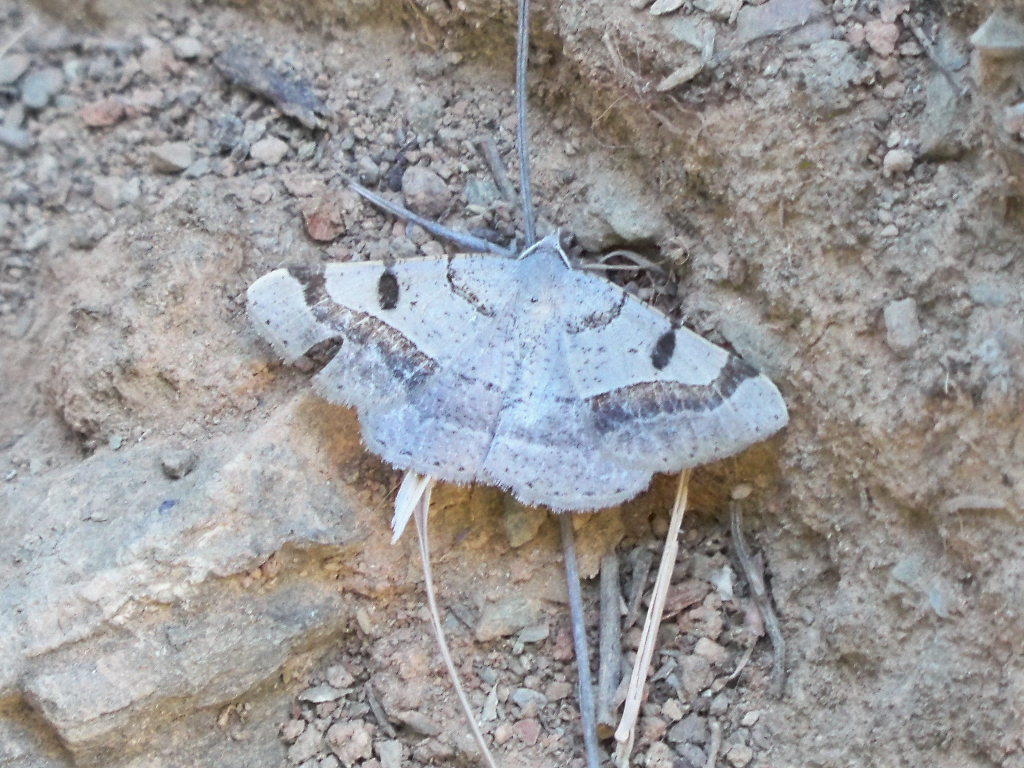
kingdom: Animalia
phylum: Arthropoda
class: Insecta
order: Lepidoptera
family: Geometridae
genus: Itame
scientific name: Itame vincularia
